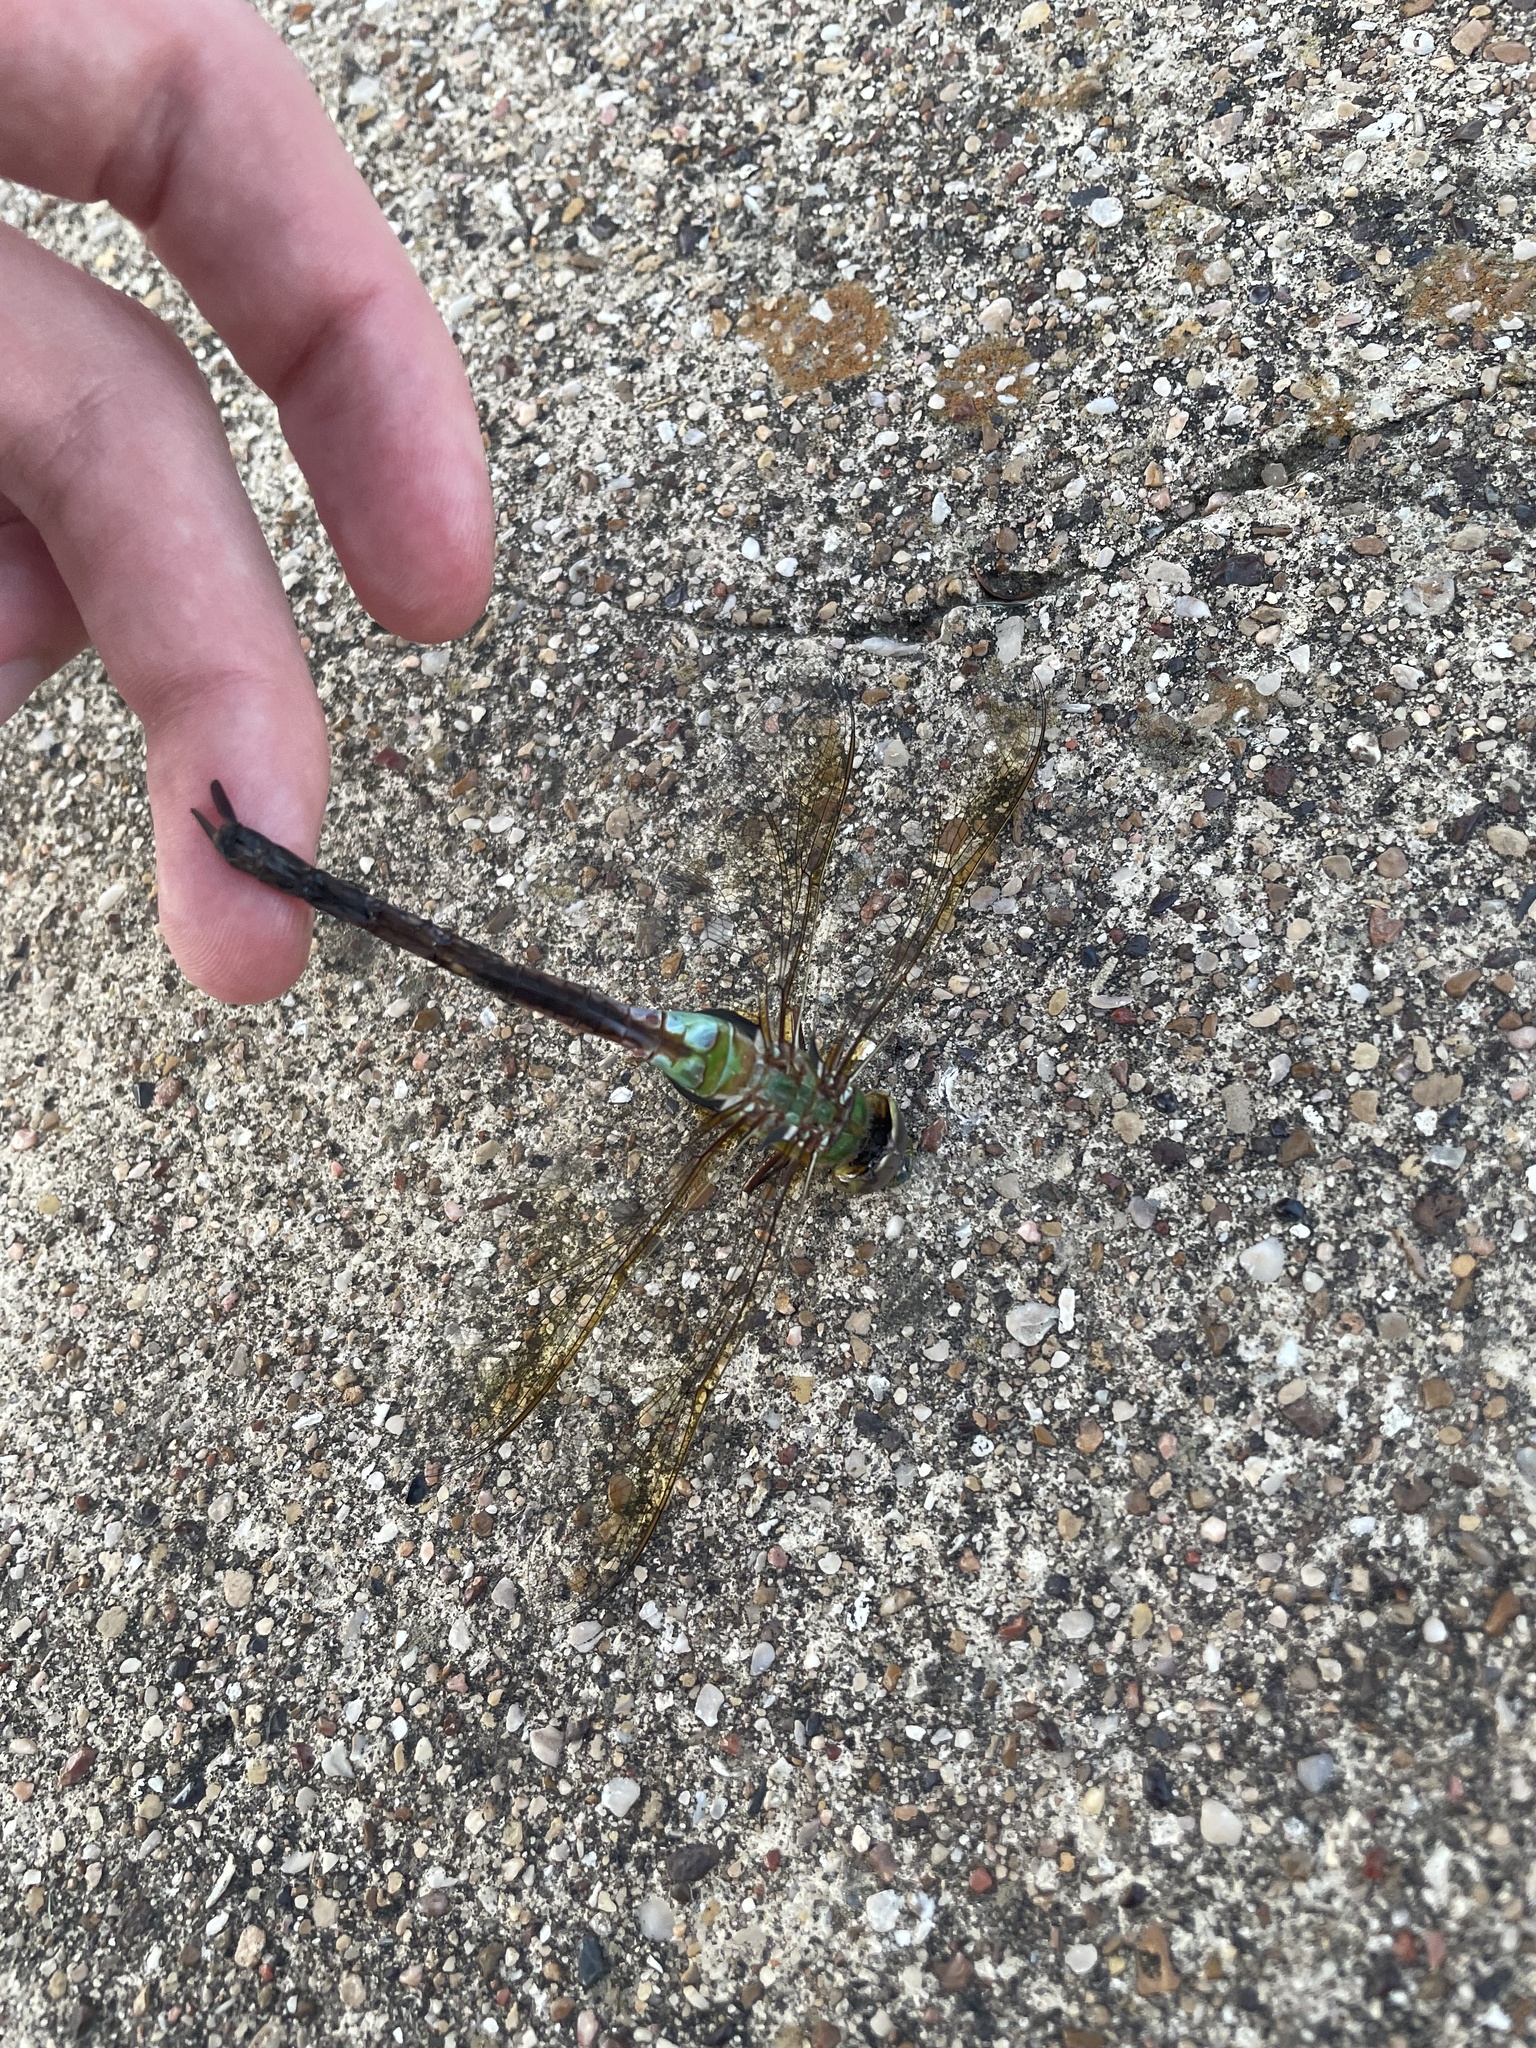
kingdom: Animalia
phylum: Arthropoda
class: Insecta
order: Odonata
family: Aeshnidae
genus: Anax
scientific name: Anax junius
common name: Common green darner
